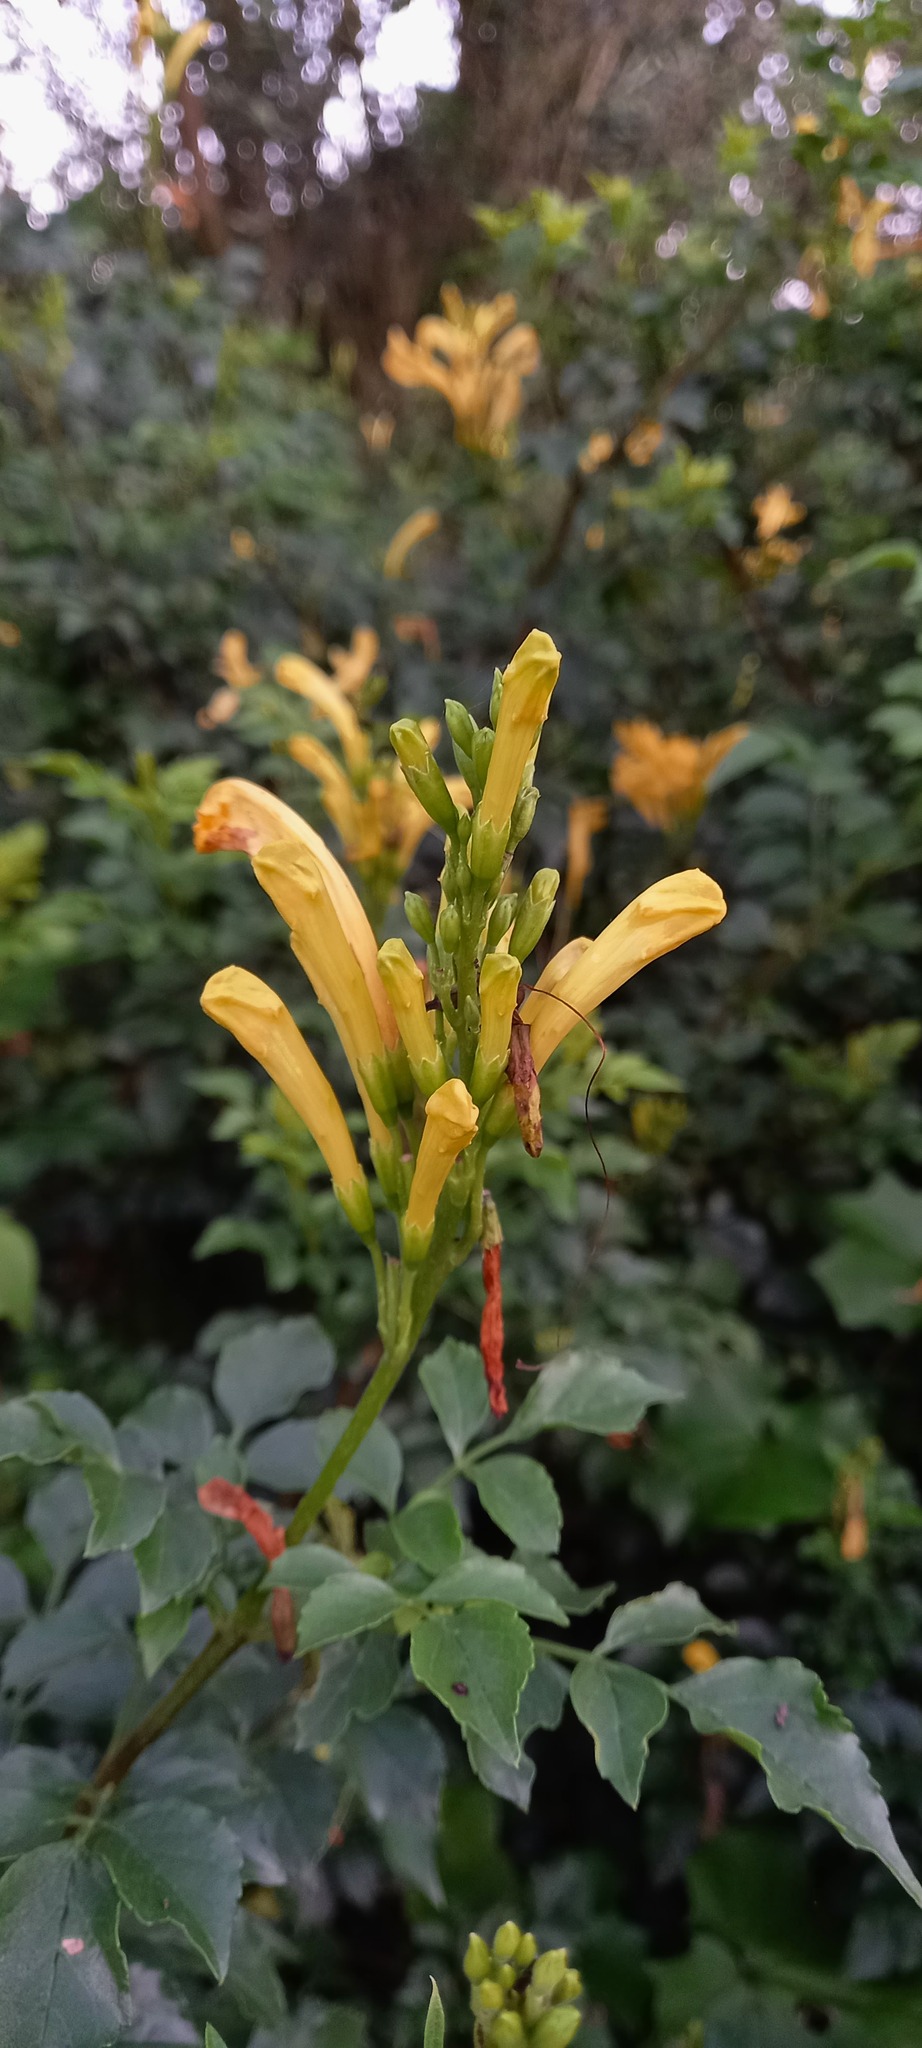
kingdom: Plantae
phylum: Tracheophyta
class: Magnoliopsida
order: Lamiales
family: Bignoniaceae
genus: Tecomaria
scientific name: Tecomaria capensis
